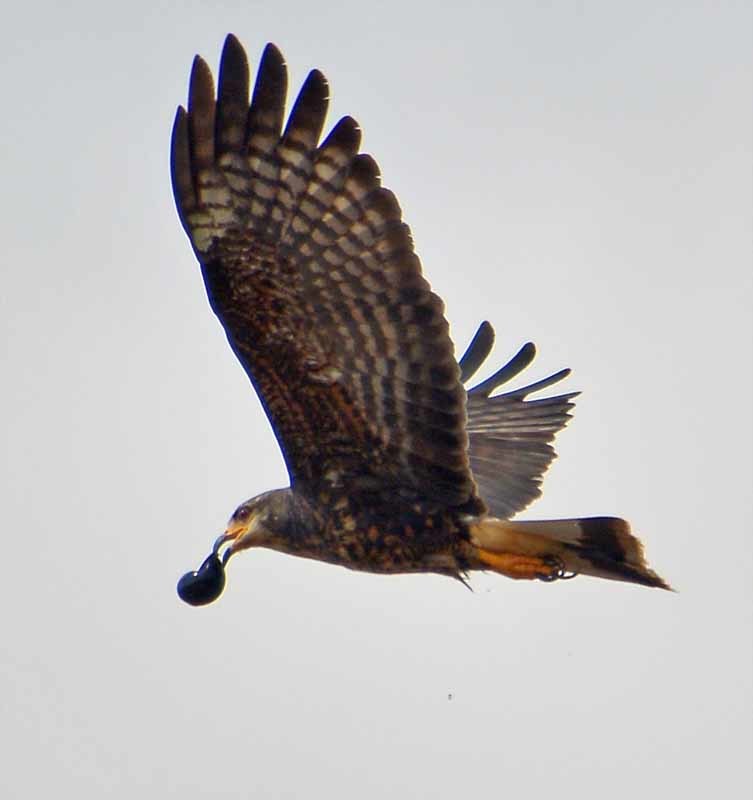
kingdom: Animalia
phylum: Chordata
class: Aves
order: Accipitriformes
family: Accipitridae
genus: Rostrhamus
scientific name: Rostrhamus sociabilis
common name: Snail kite
